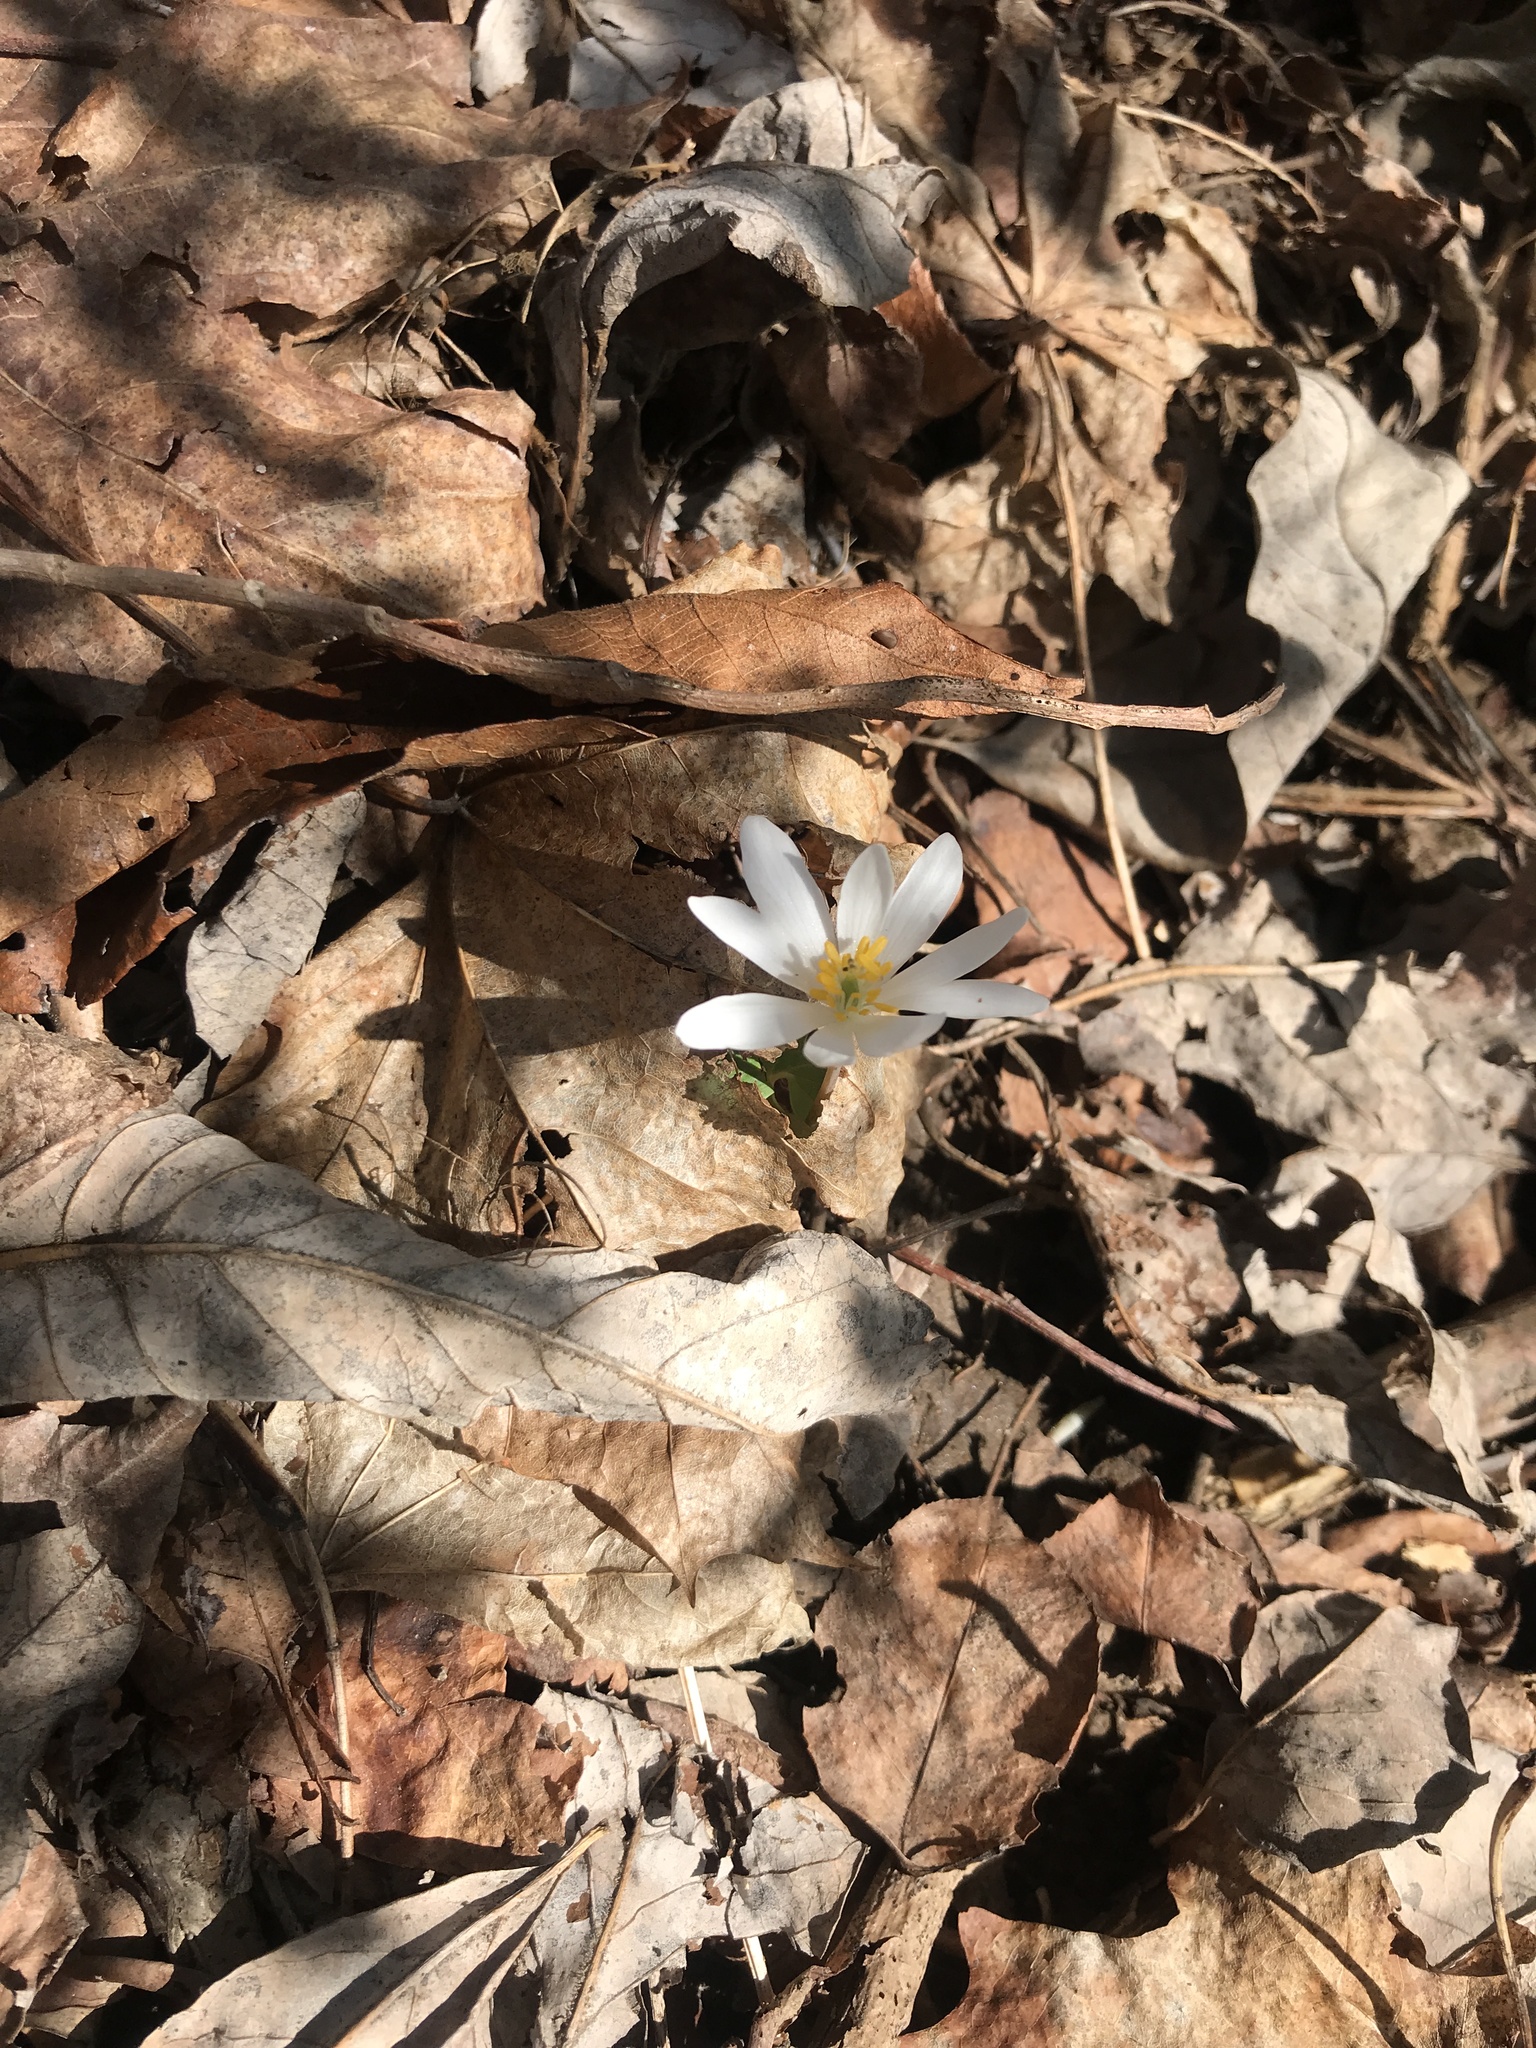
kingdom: Plantae
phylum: Tracheophyta
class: Magnoliopsida
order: Ranunculales
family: Papaveraceae
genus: Sanguinaria
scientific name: Sanguinaria canadensis
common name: Bloodroot
